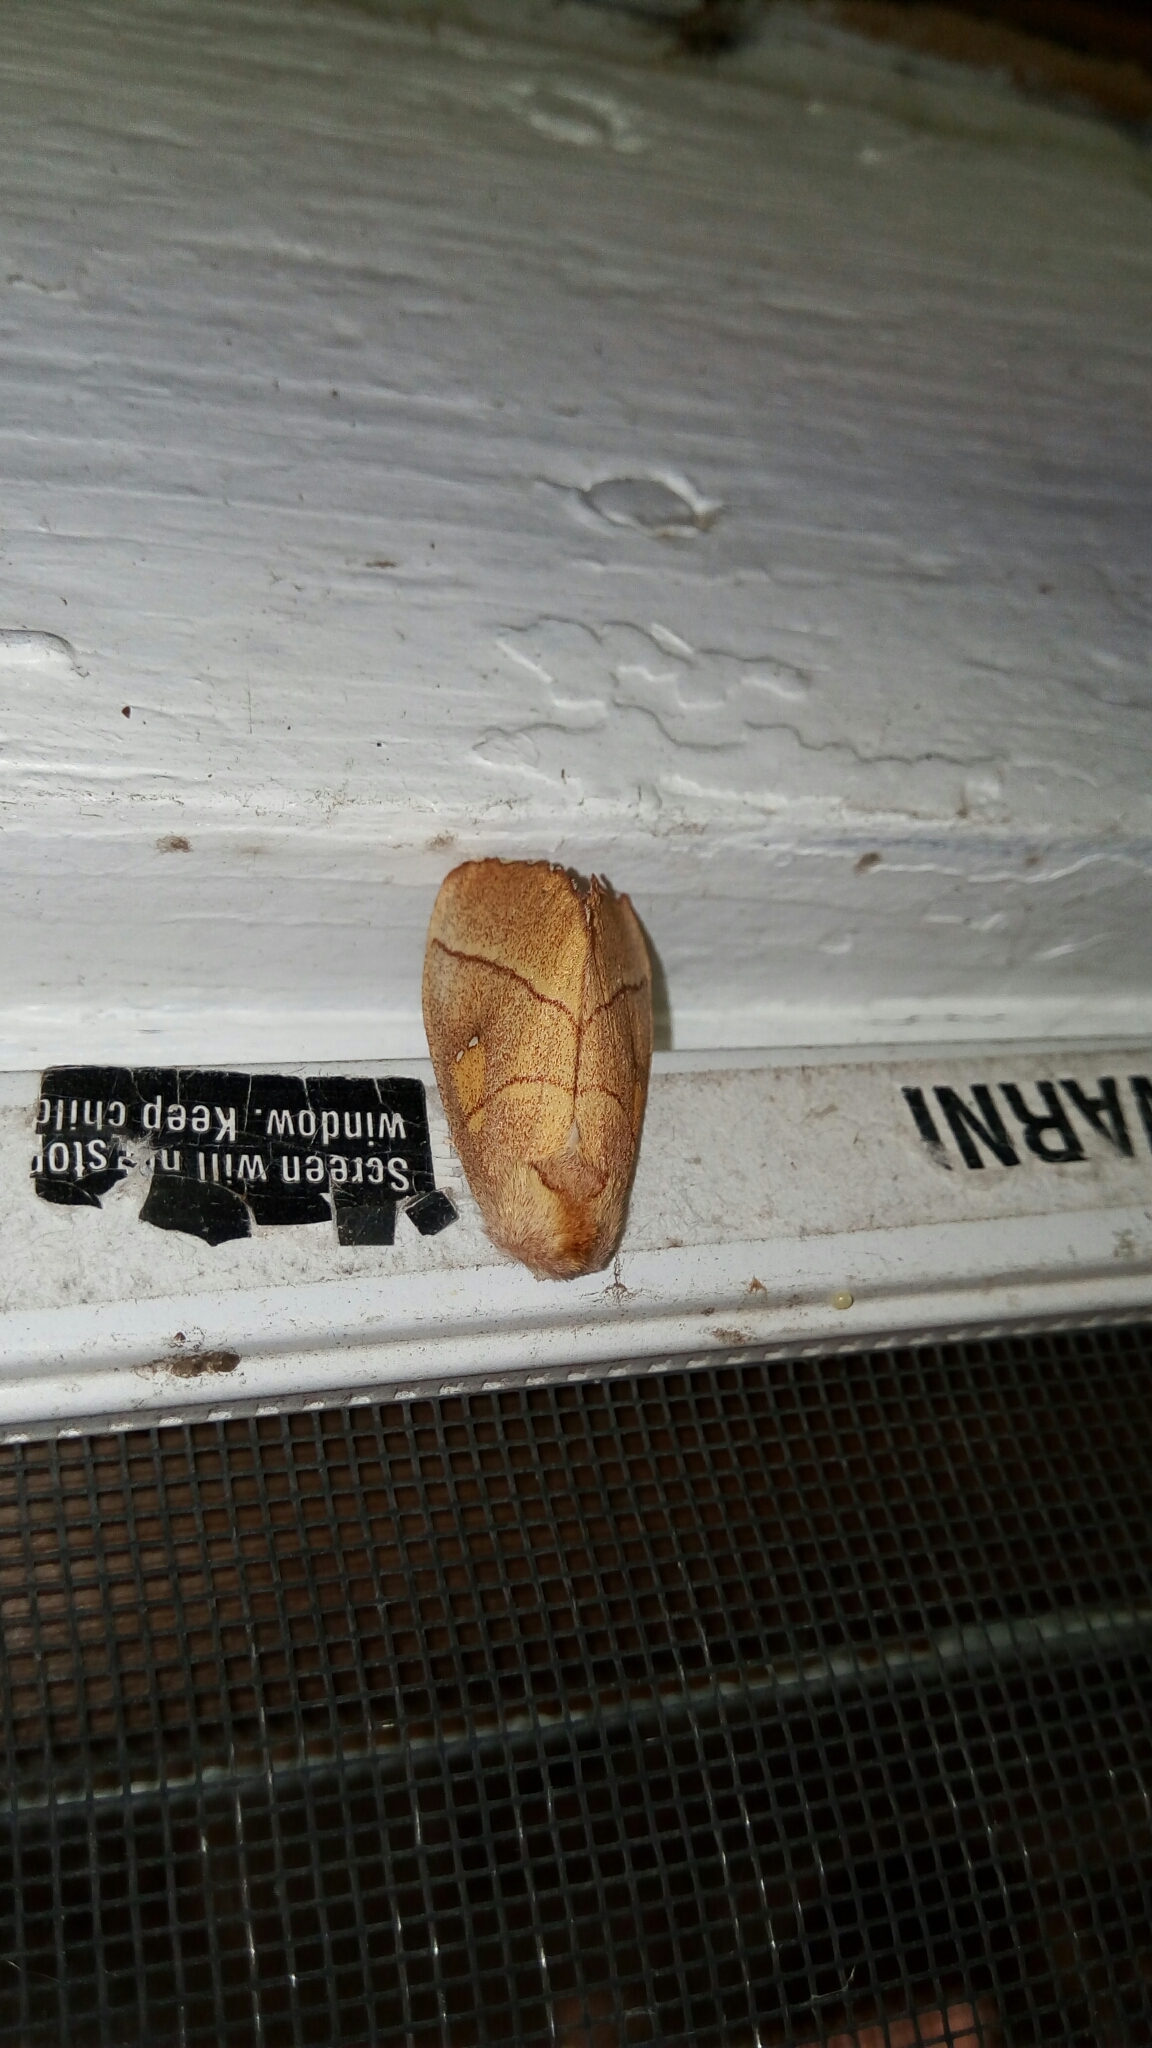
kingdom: Animalia
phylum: Arthropoda
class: Insecta
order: Lepidoptera
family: Notodontidae
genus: Nadata
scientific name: Nadata gibbosa
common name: White-dotted prominent
